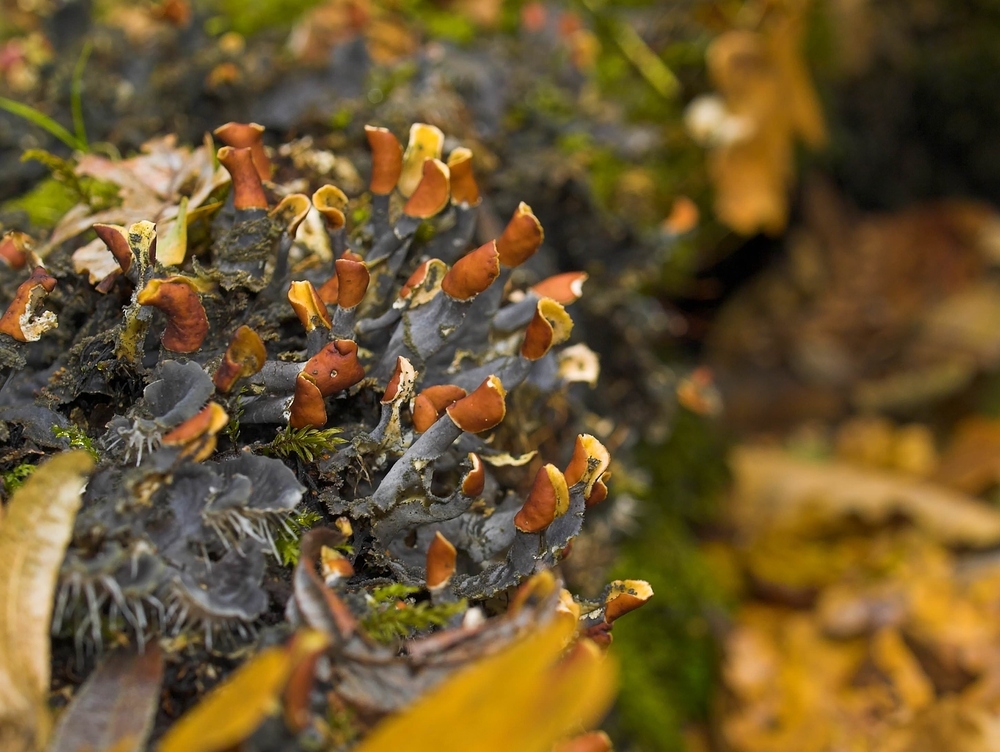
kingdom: Fungi
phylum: Ascomycota
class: Lecanoromycetes
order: Peltigerales
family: Peltigeraceae
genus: Peltigera
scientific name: Peltigera praetextata
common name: Scaly dog-lichen
